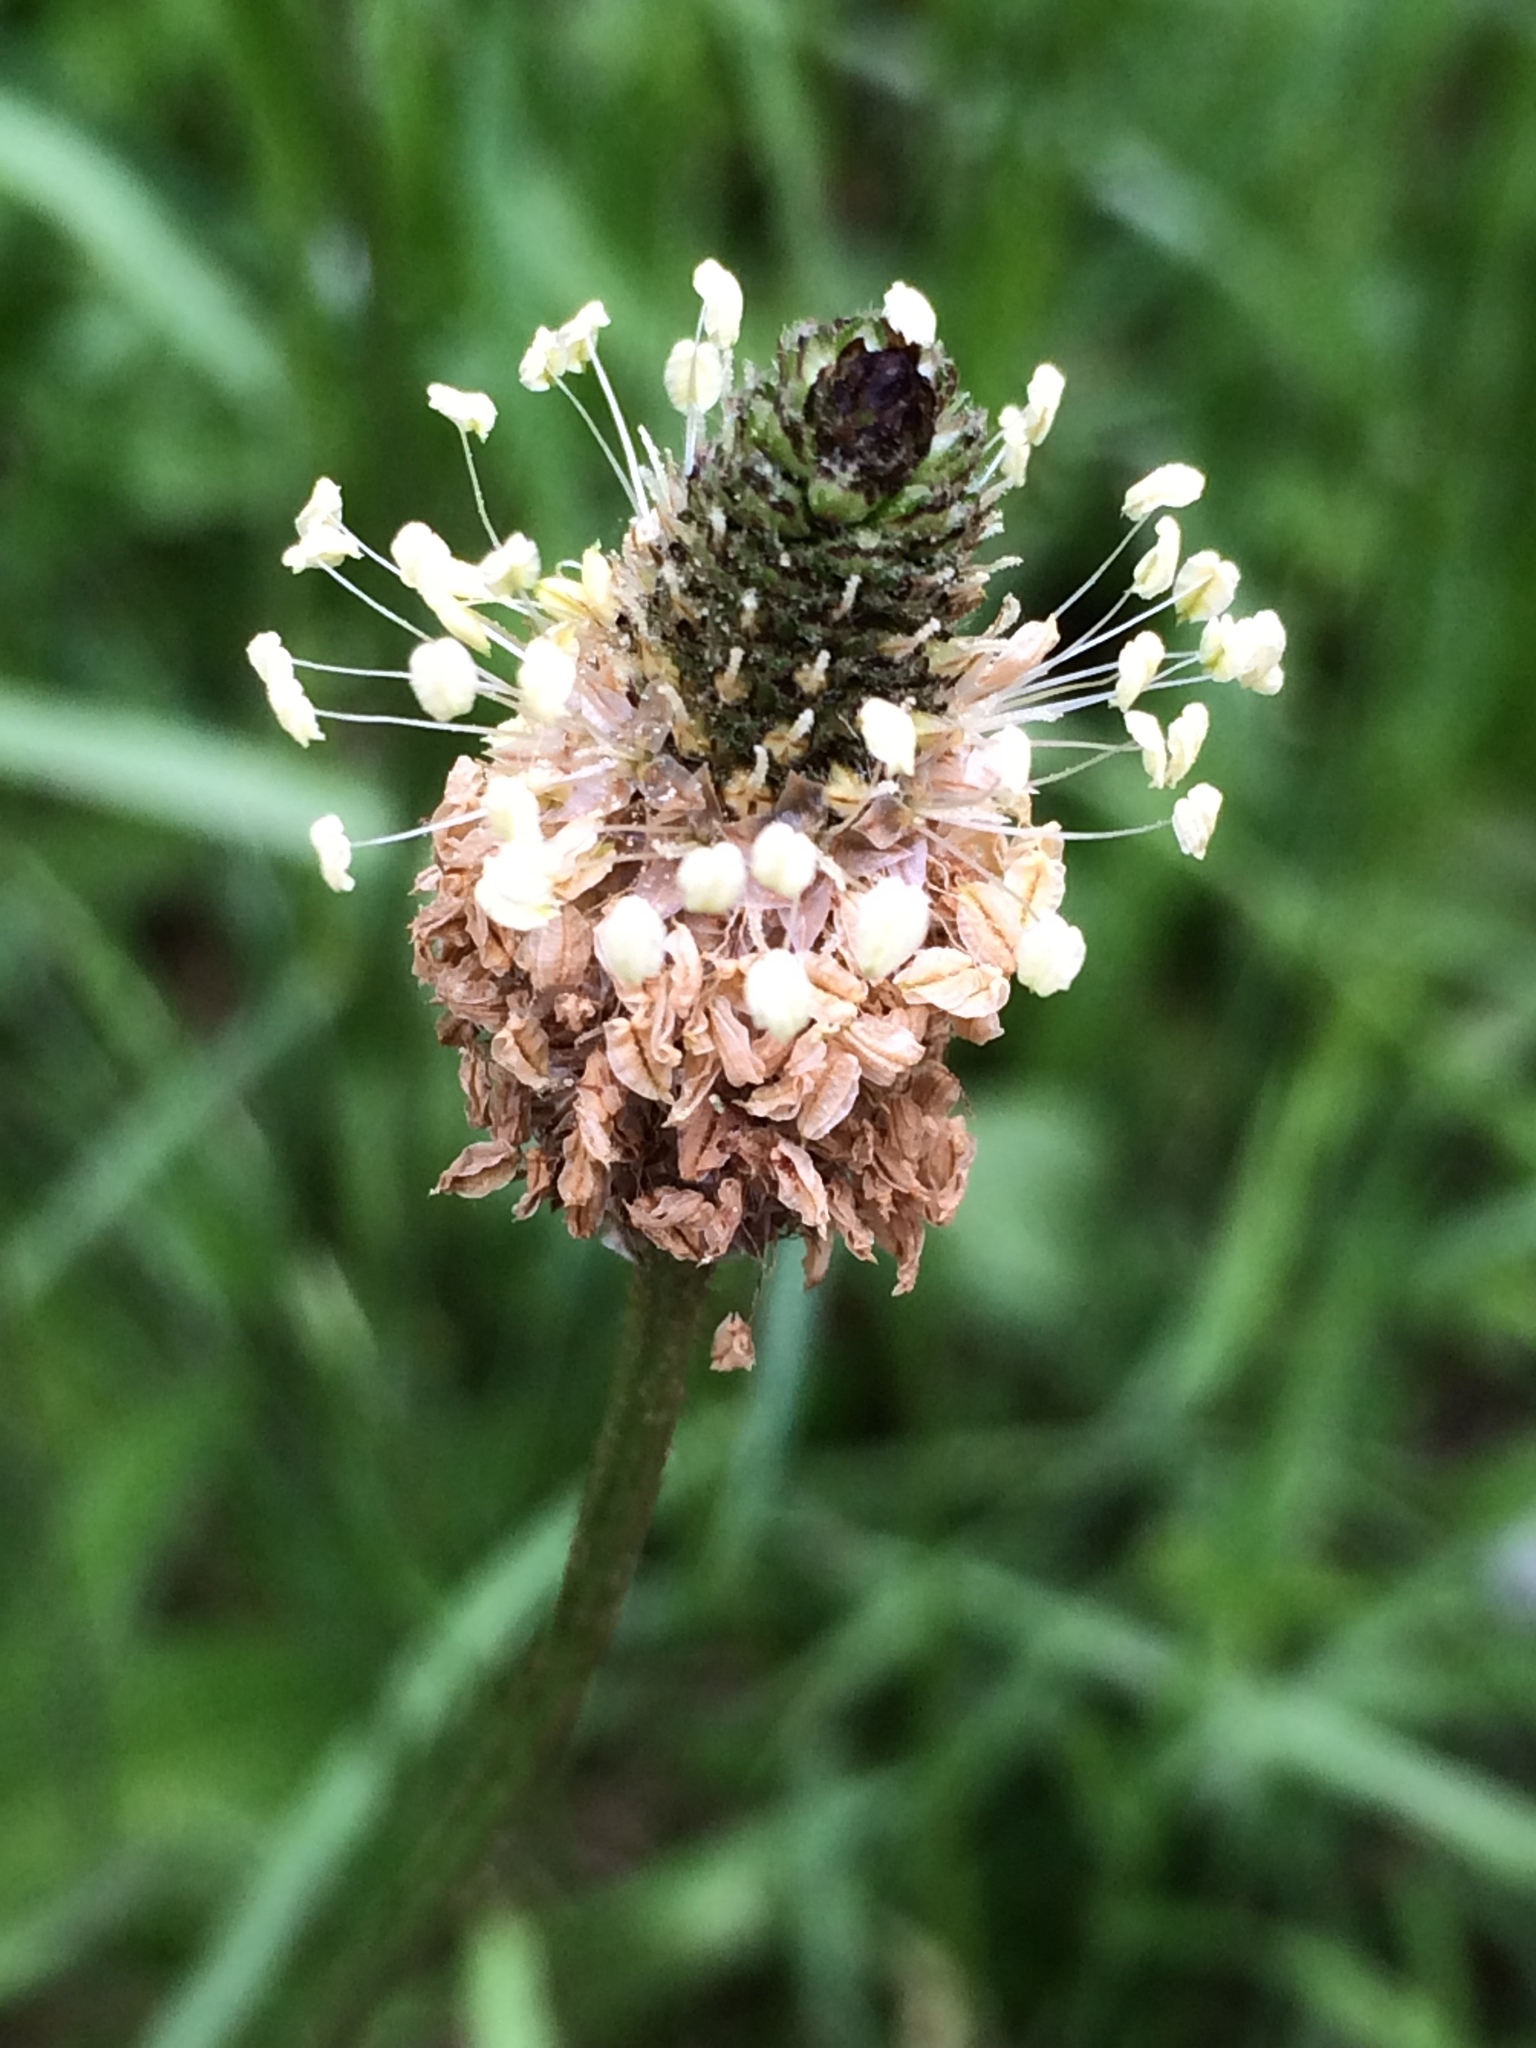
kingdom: Plantae
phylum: Tracheophyta
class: Magnoliopsida
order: Lamiales
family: Plantaginaceae
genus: Plantago
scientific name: Plantago lanceolata
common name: Ribwort plantain
